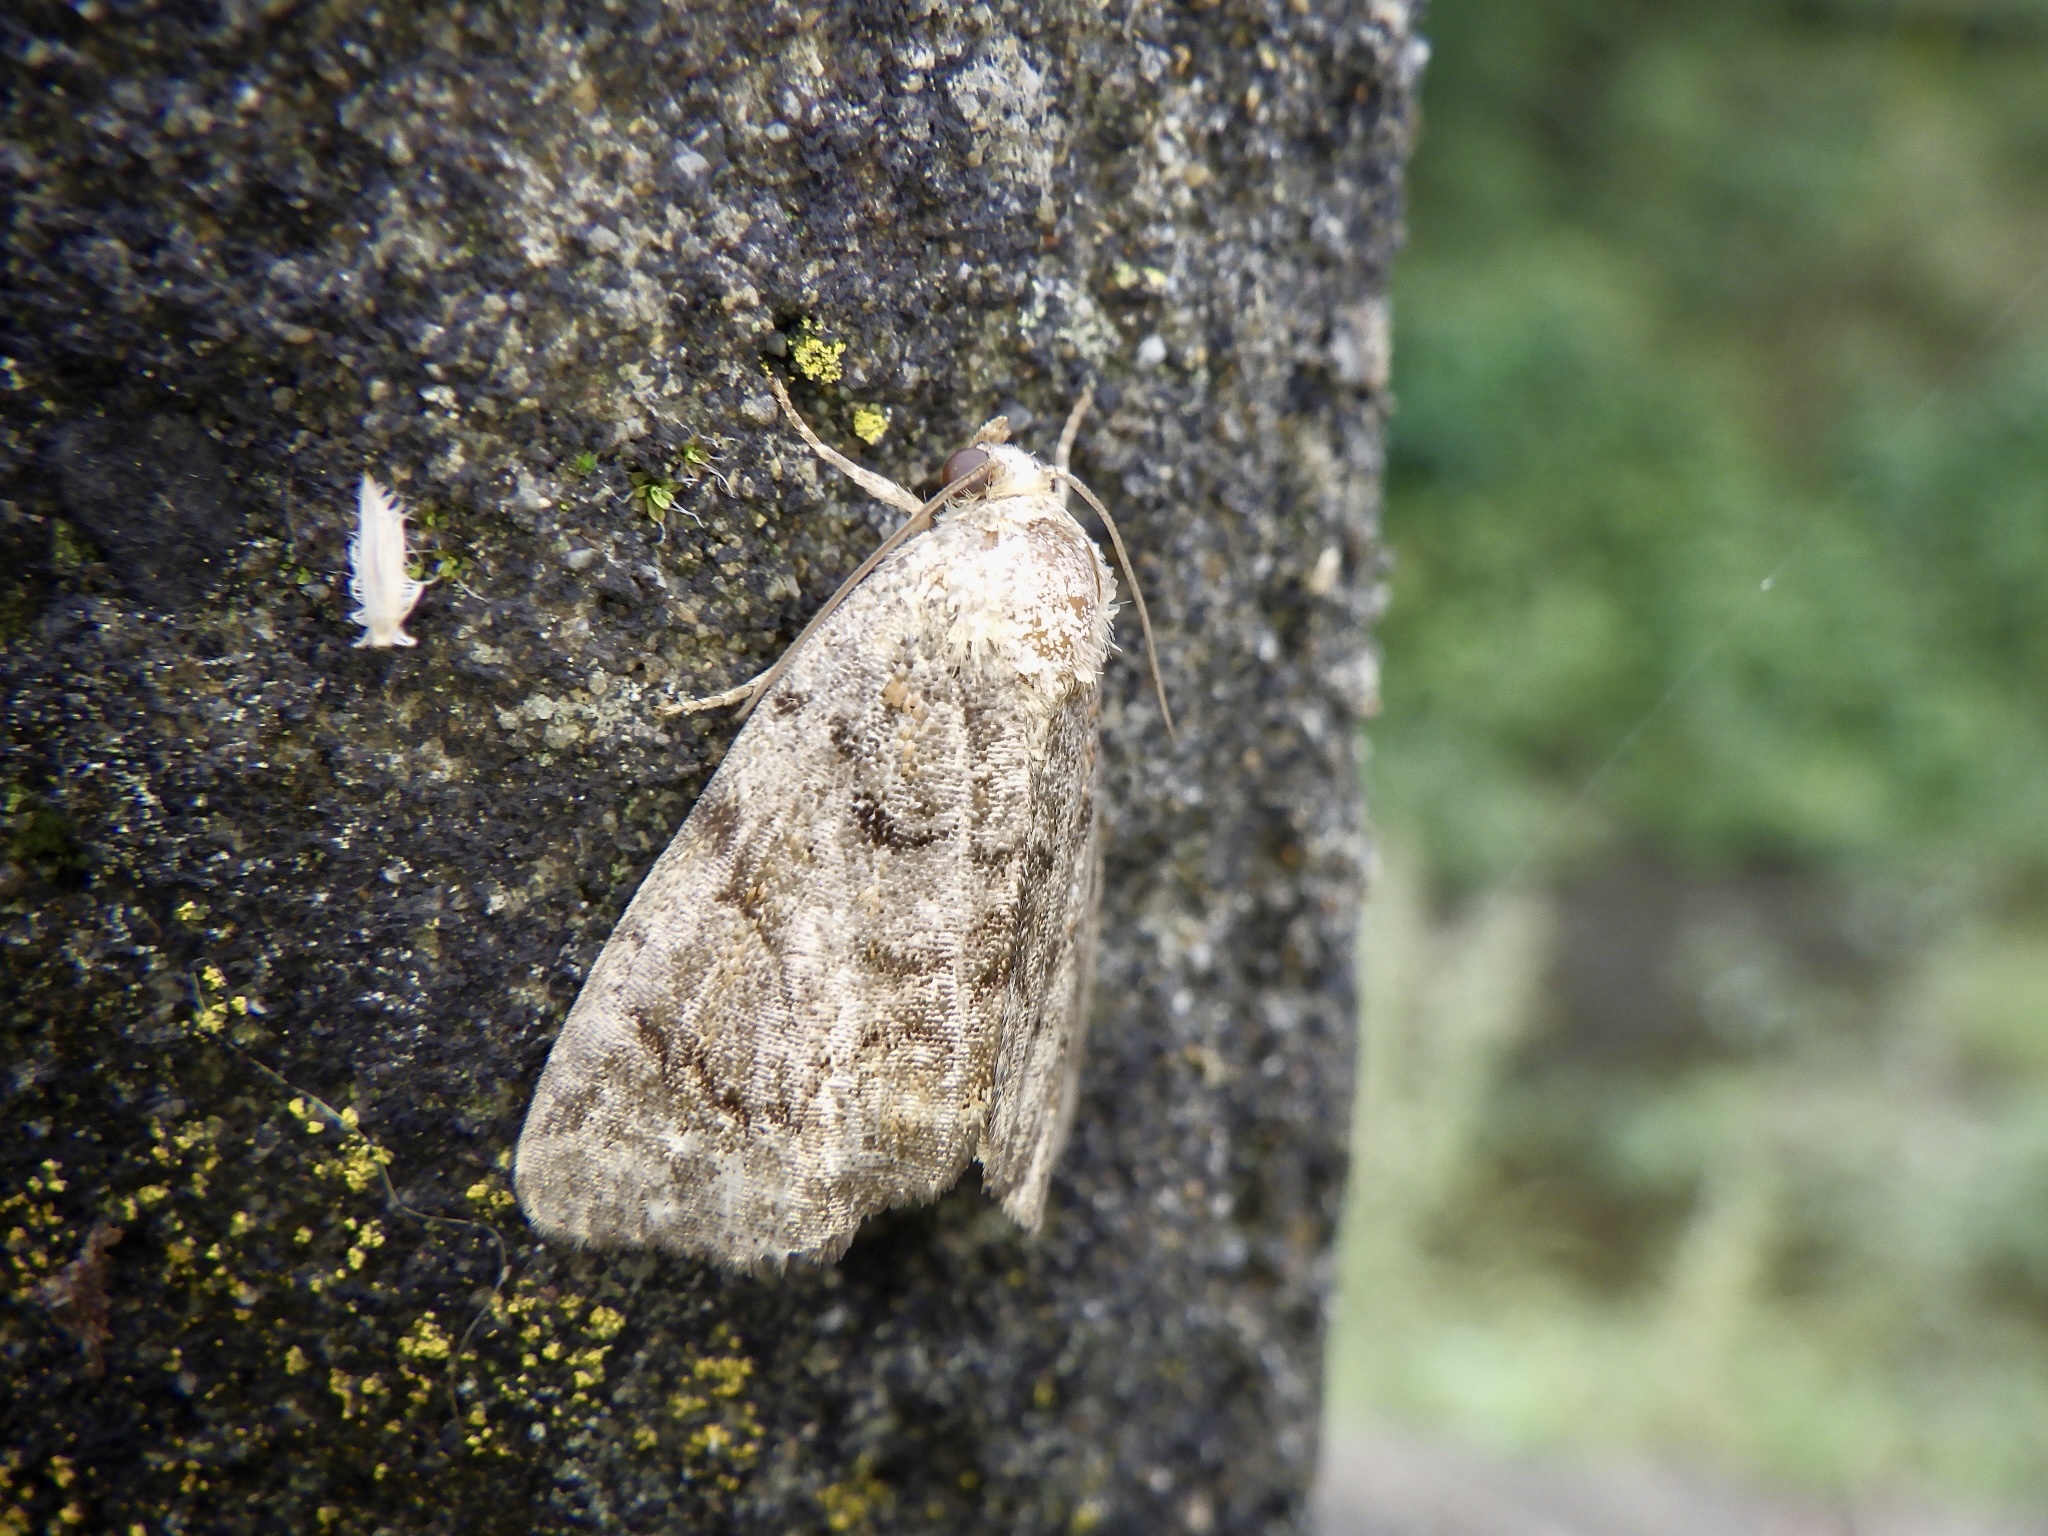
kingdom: Animalia
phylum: Arthropoda
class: Insecta
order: Lepidoptera
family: Noctuidae
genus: Atrachea
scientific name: Atrachea sordida
